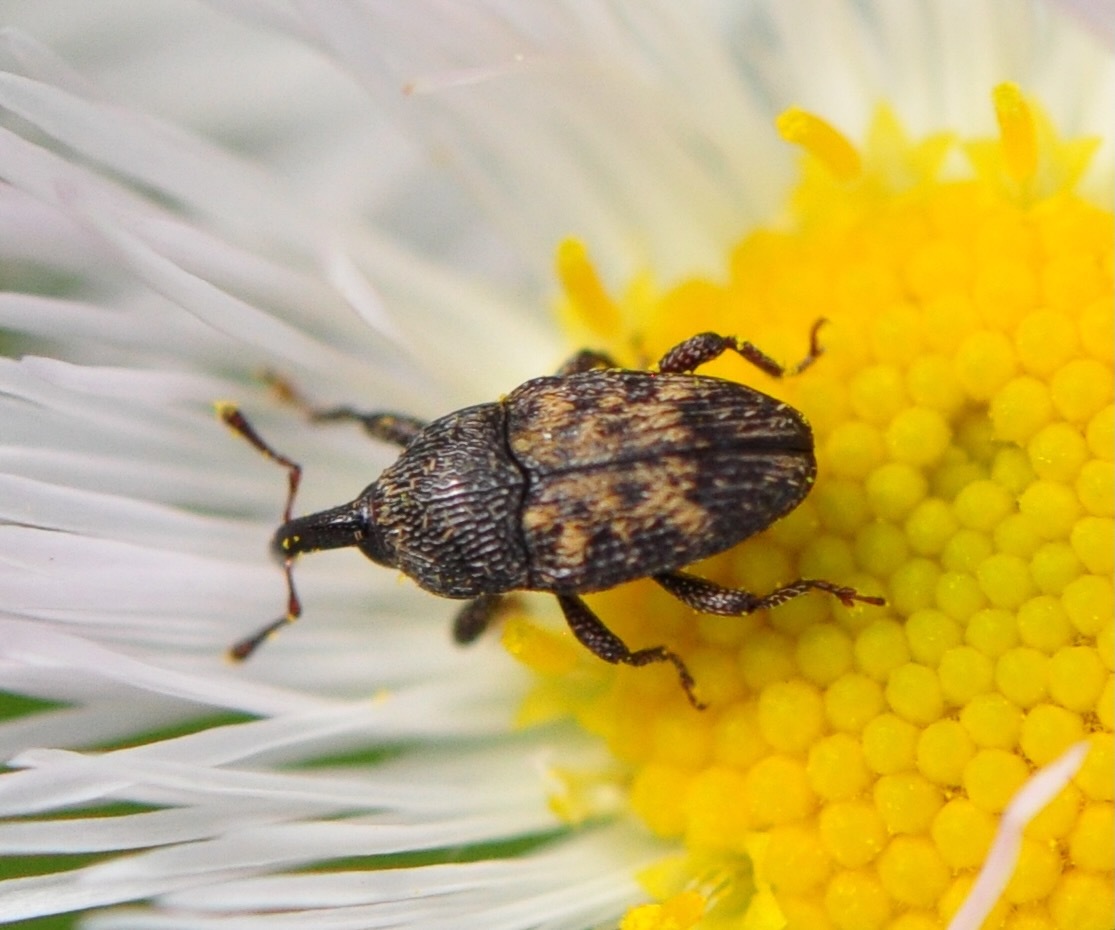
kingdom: Animalia
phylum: Arthropoda
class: Insecta
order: Coleoptera
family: Curculionidae
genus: Glyptobaris
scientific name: Glyptobaris lecontei
